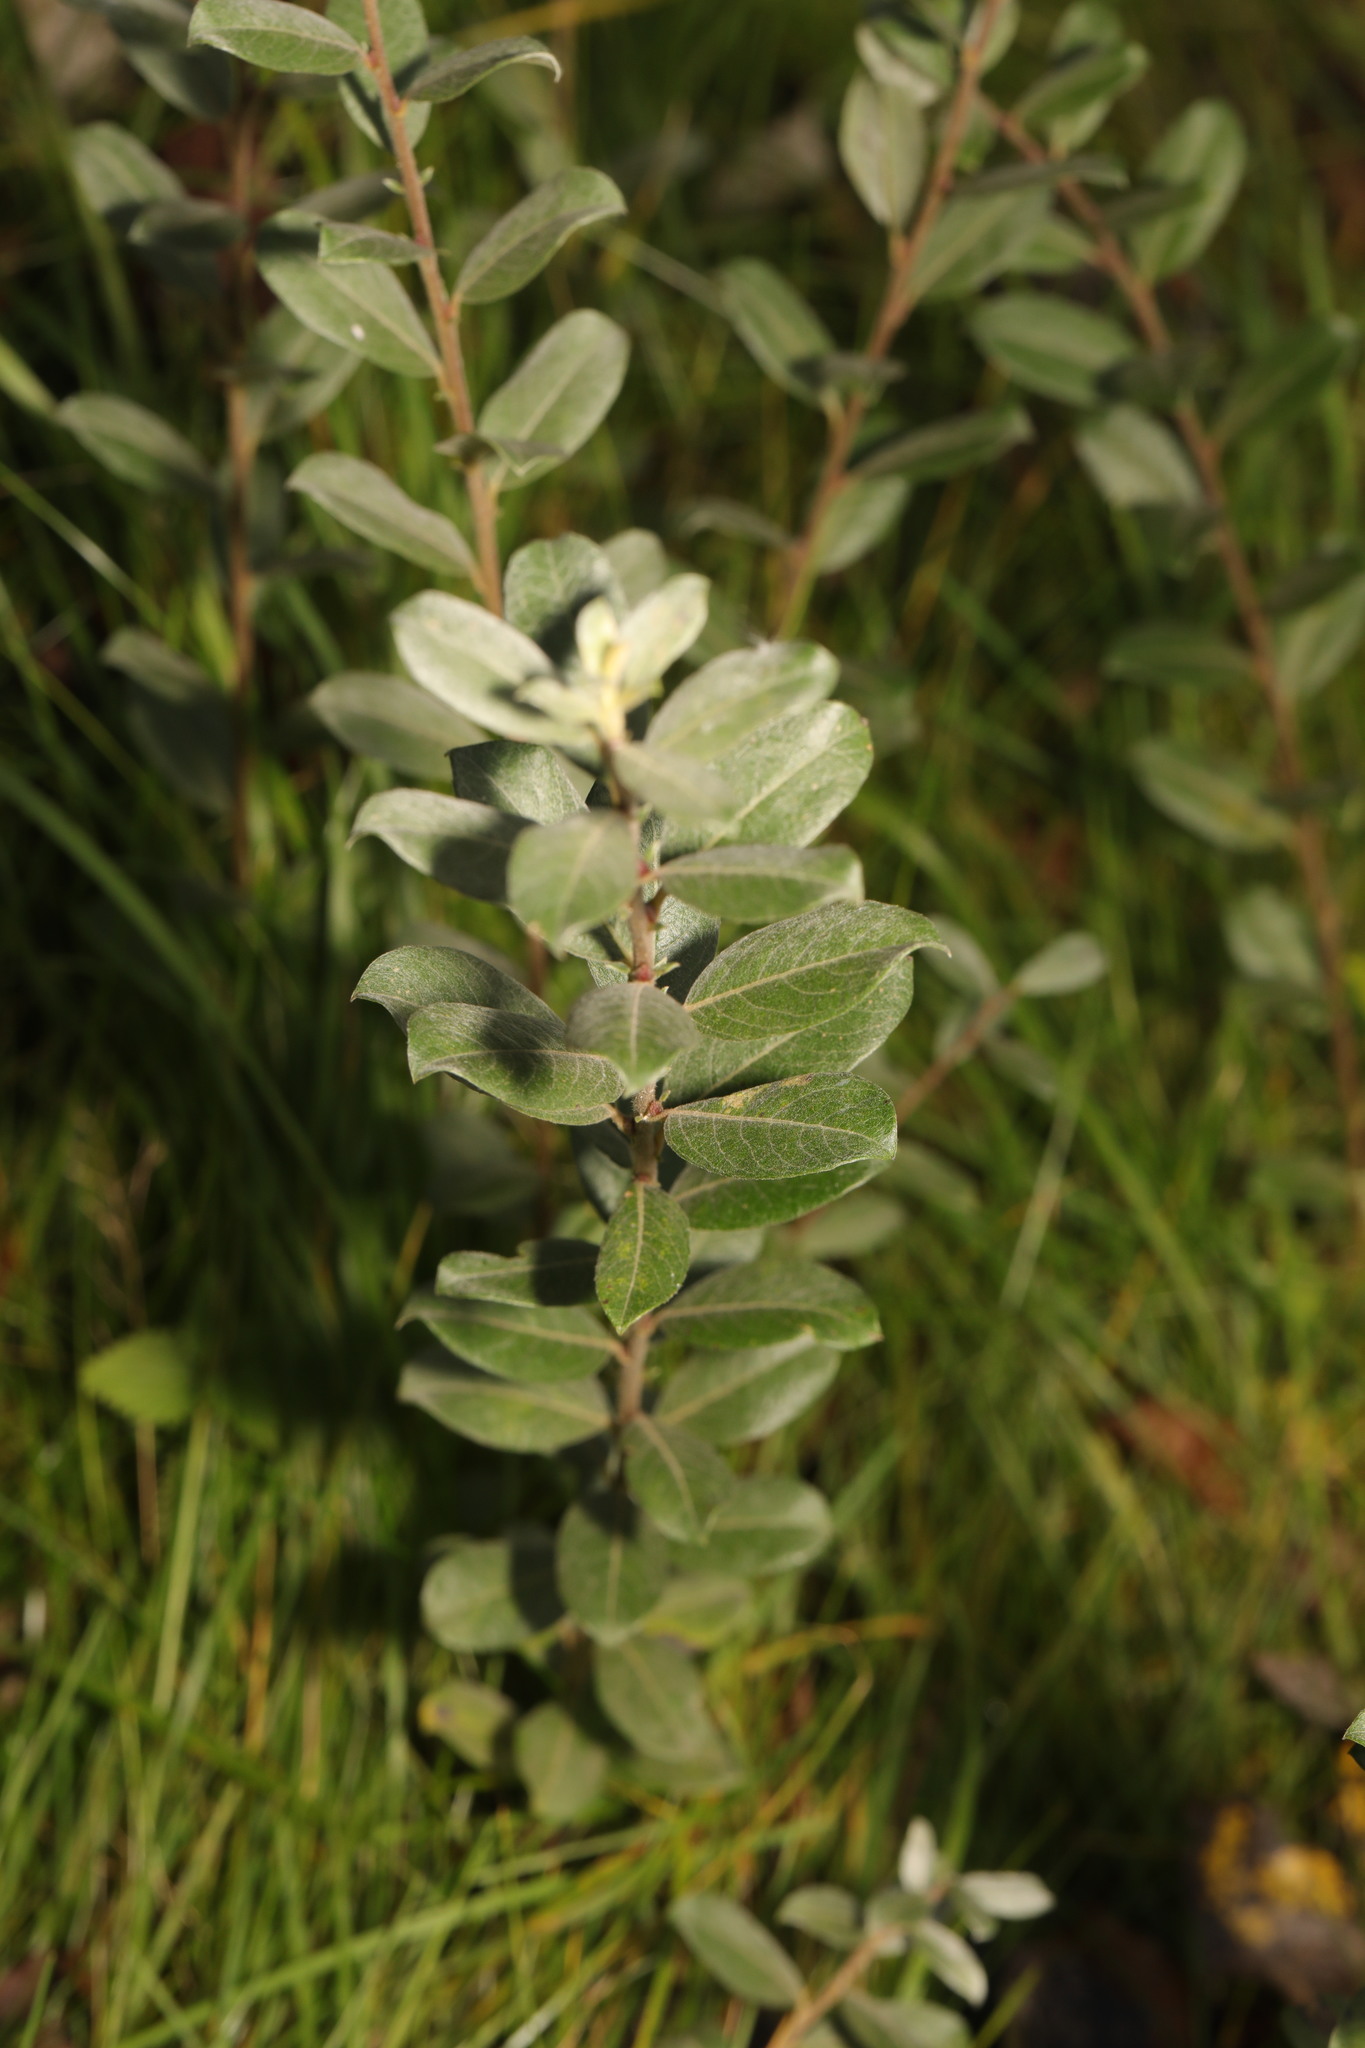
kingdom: Plantae
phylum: Tracheophyta
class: Magnoliopsida
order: Malpighiales
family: Salicaceae
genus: Salix
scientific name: Salix repens
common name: Creeping willow
